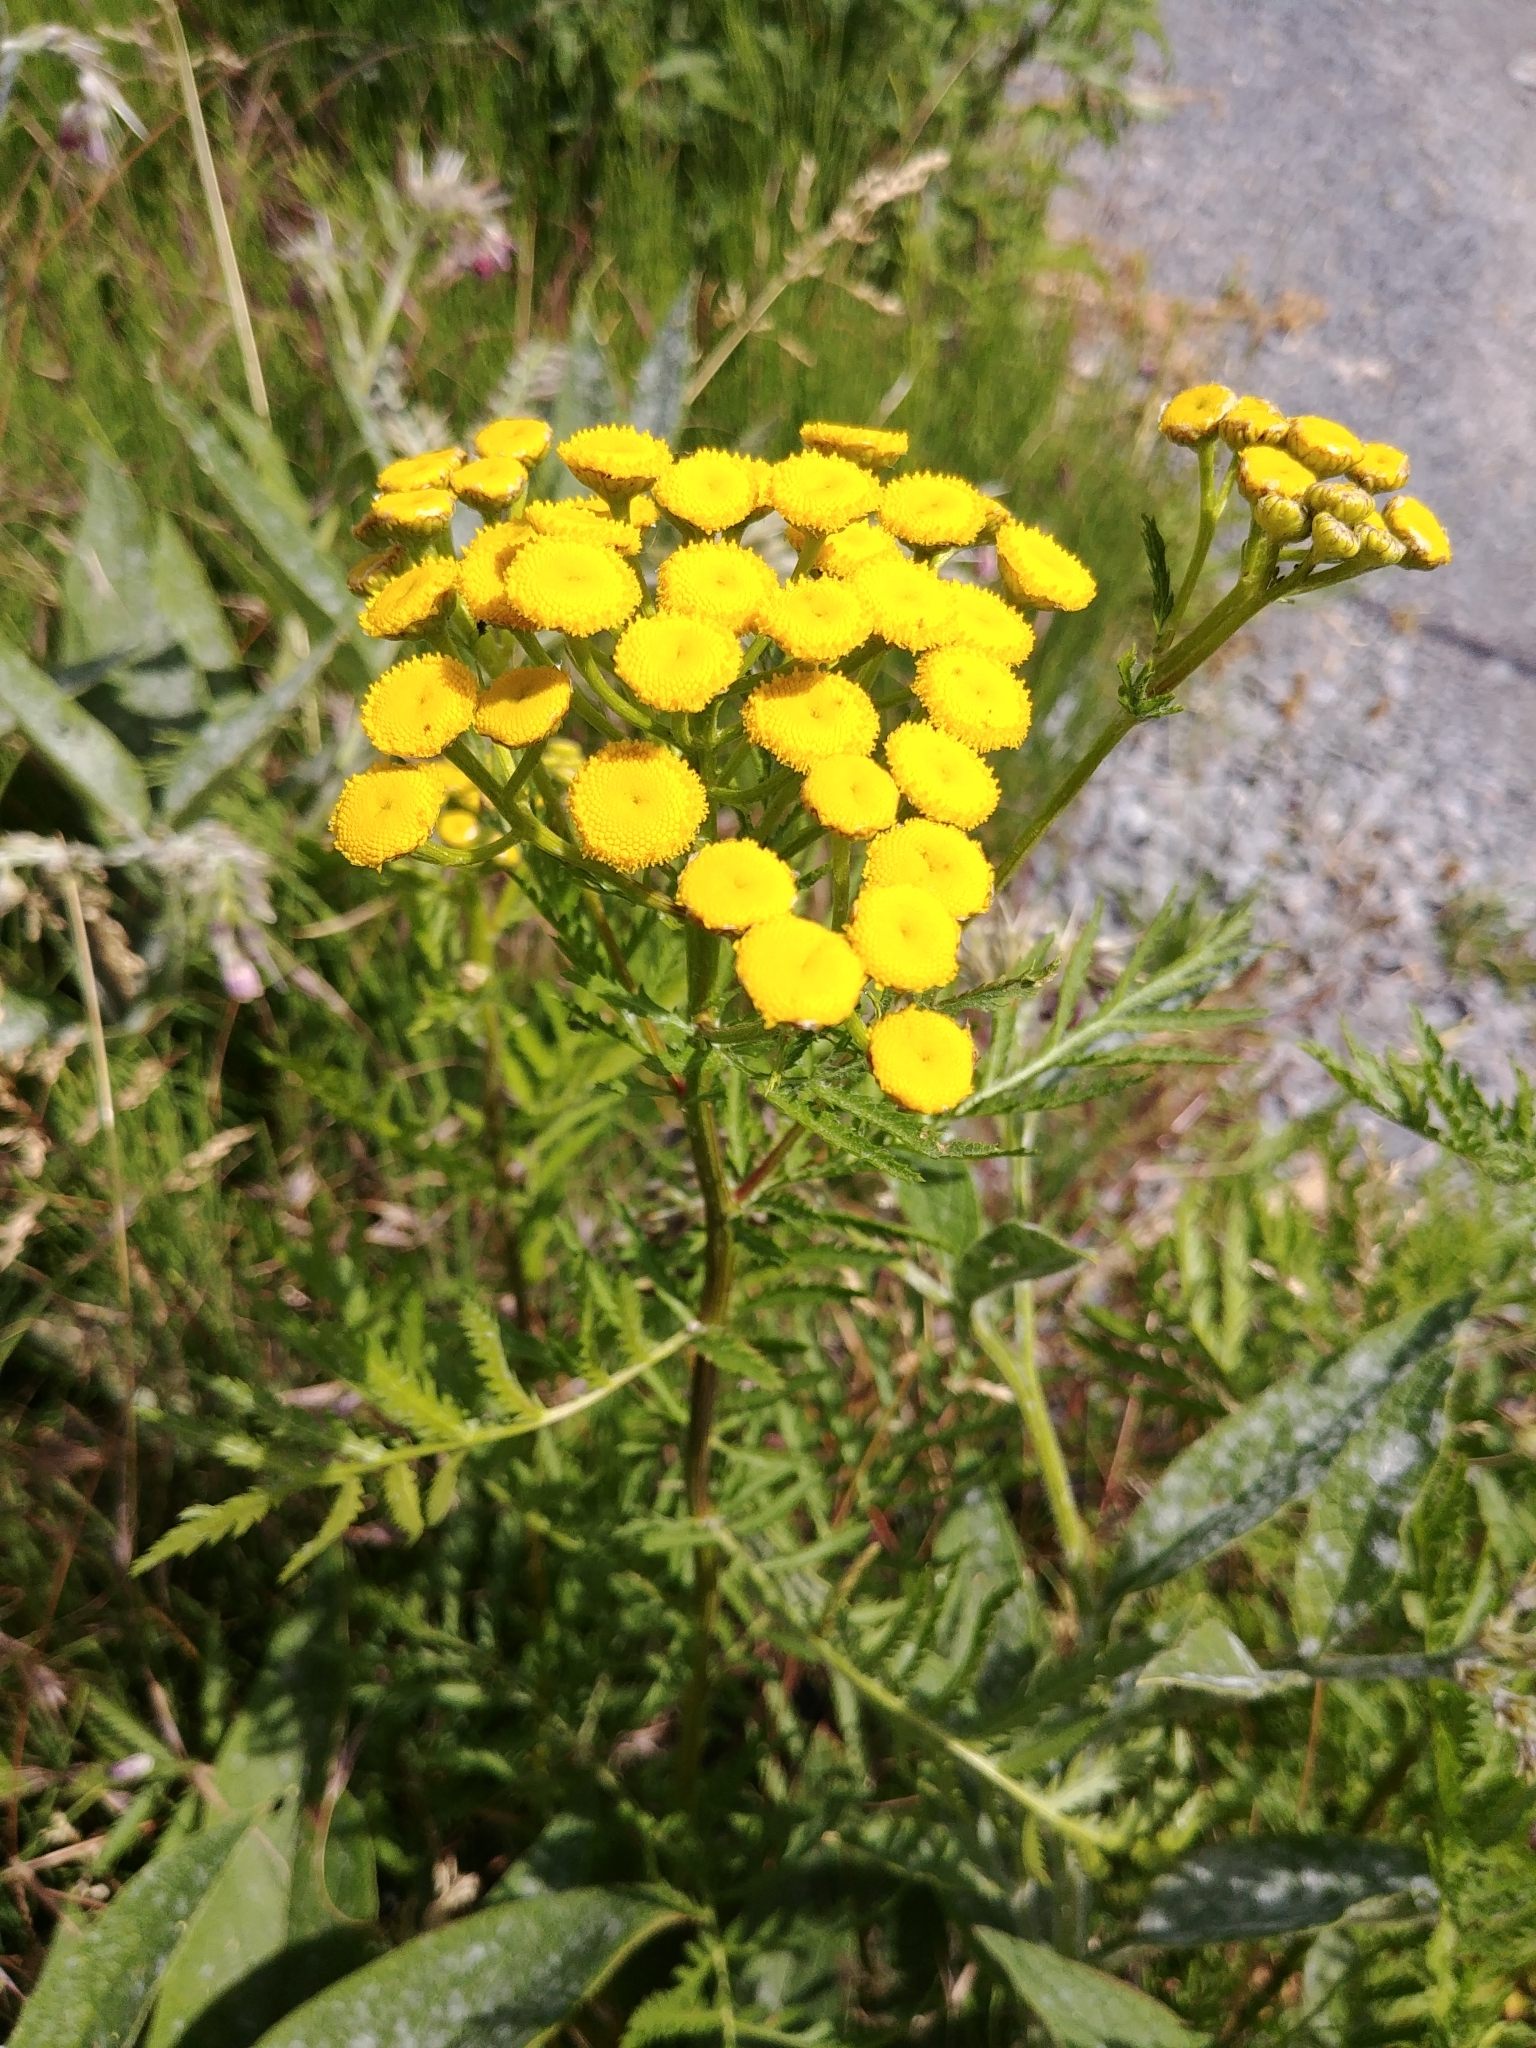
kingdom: Plantae
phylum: Tracheophyta
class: Magnoliopsida
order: Asterales
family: Asteraceae
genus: Tanacetum
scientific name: Tanacetum vulgare
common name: Common tansy
